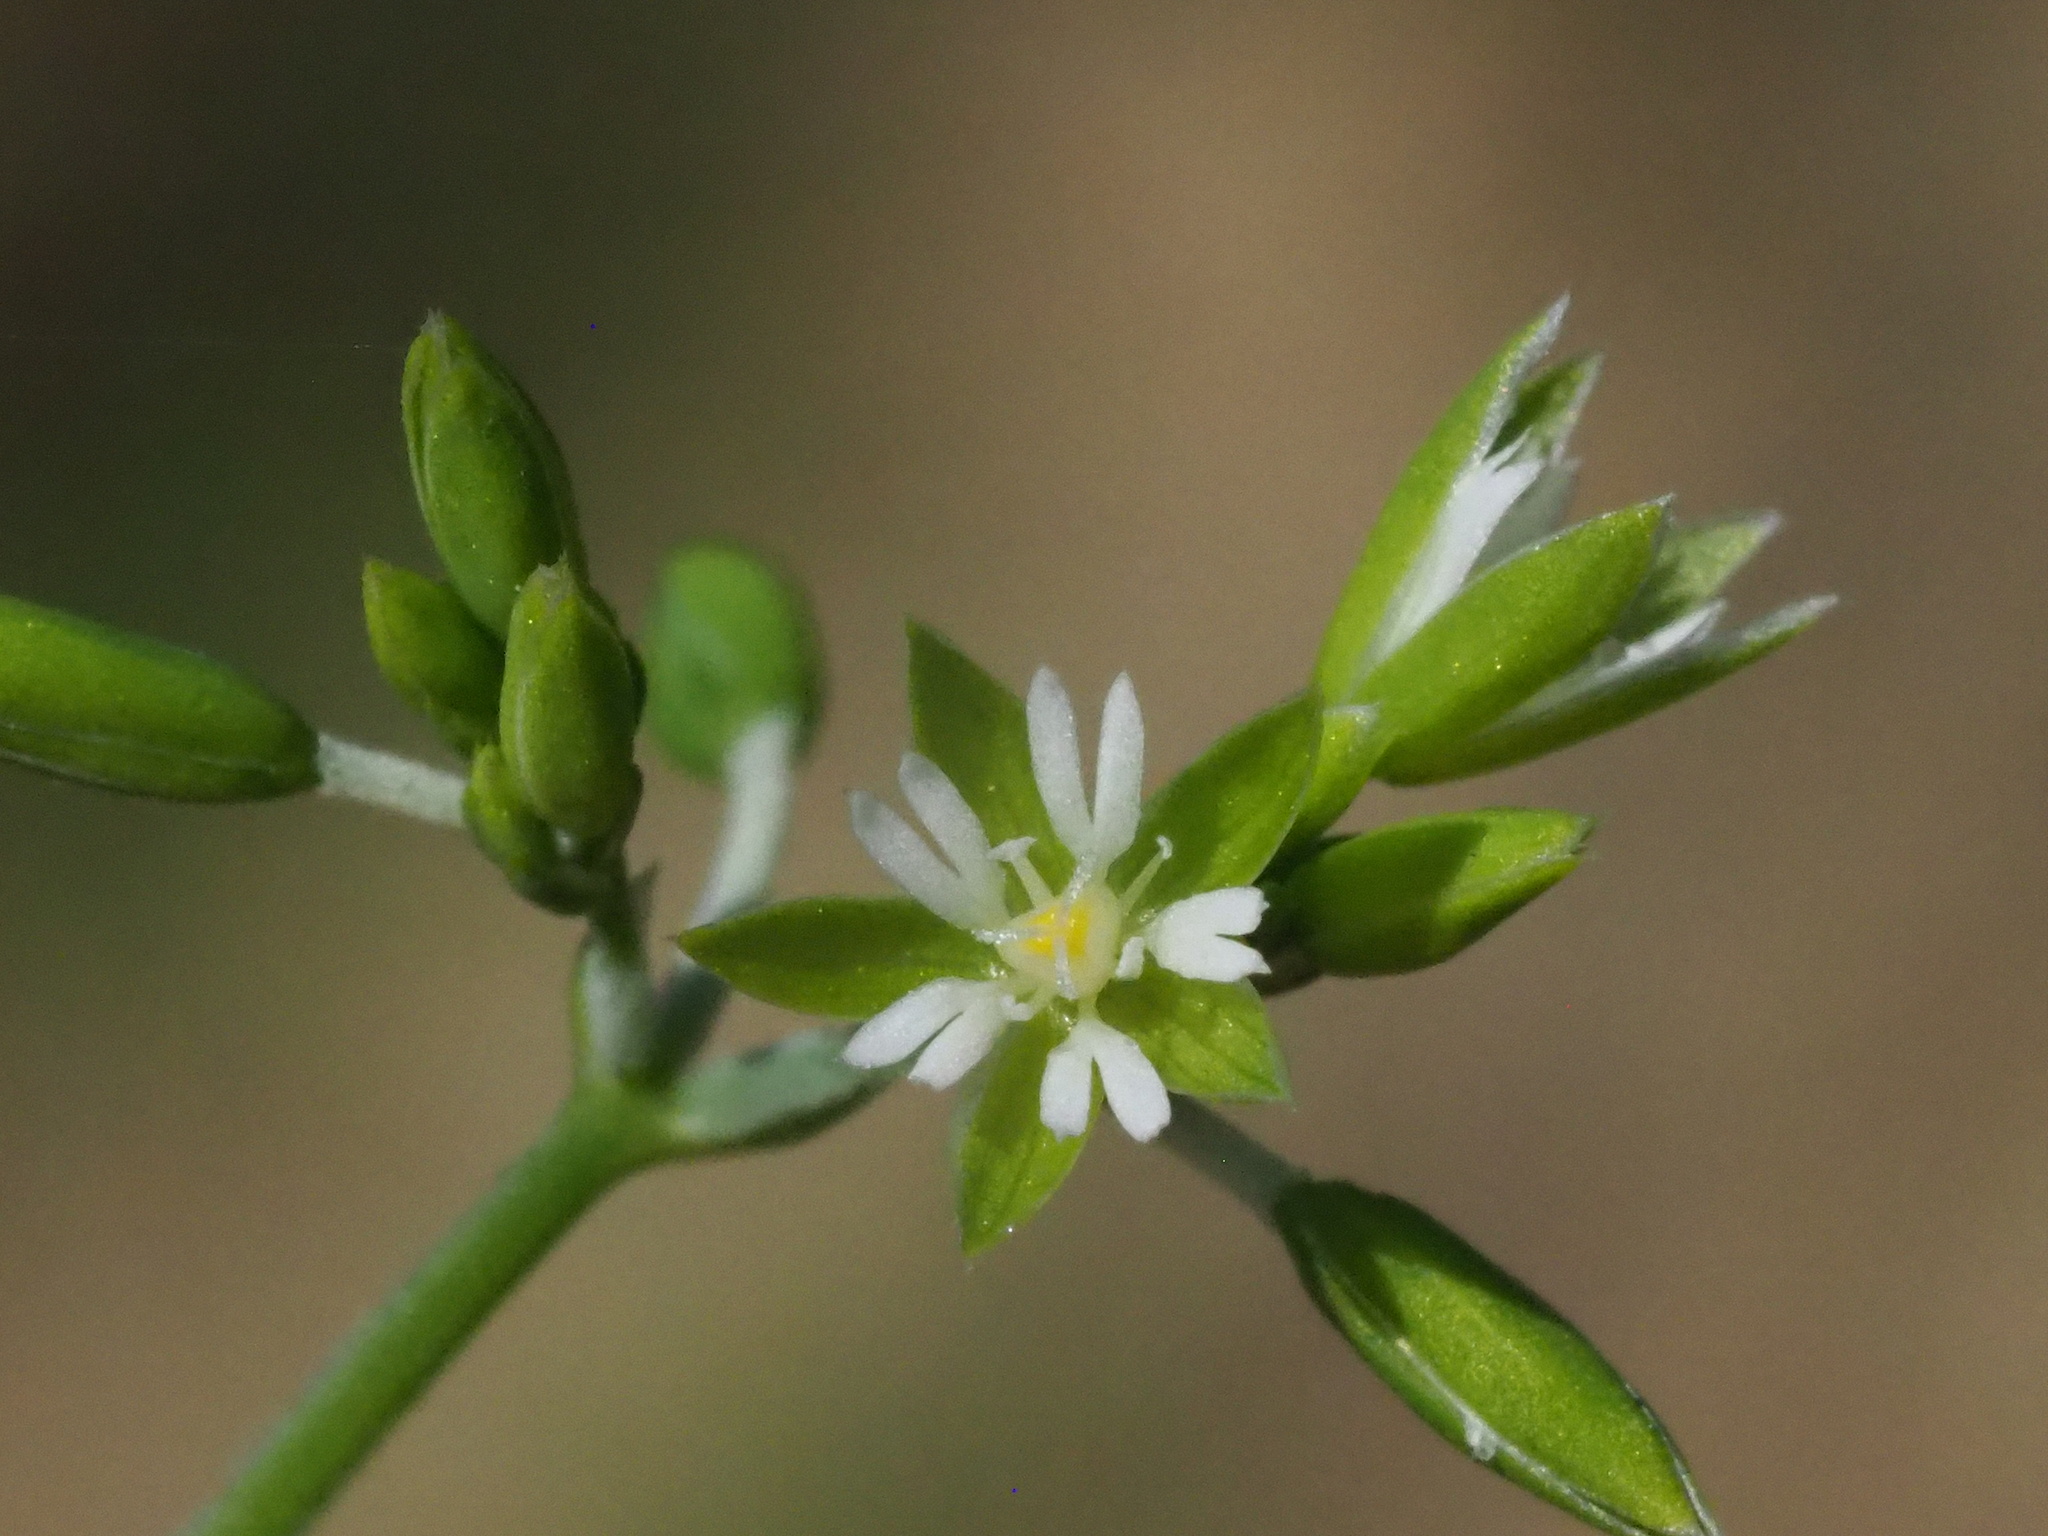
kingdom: Plantae
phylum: Tracheophyta
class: Magnoliopsida
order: Caryophyllales
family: Caryophyllaceae
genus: Drymaria
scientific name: Drymaria cordata
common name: Whitesnow
